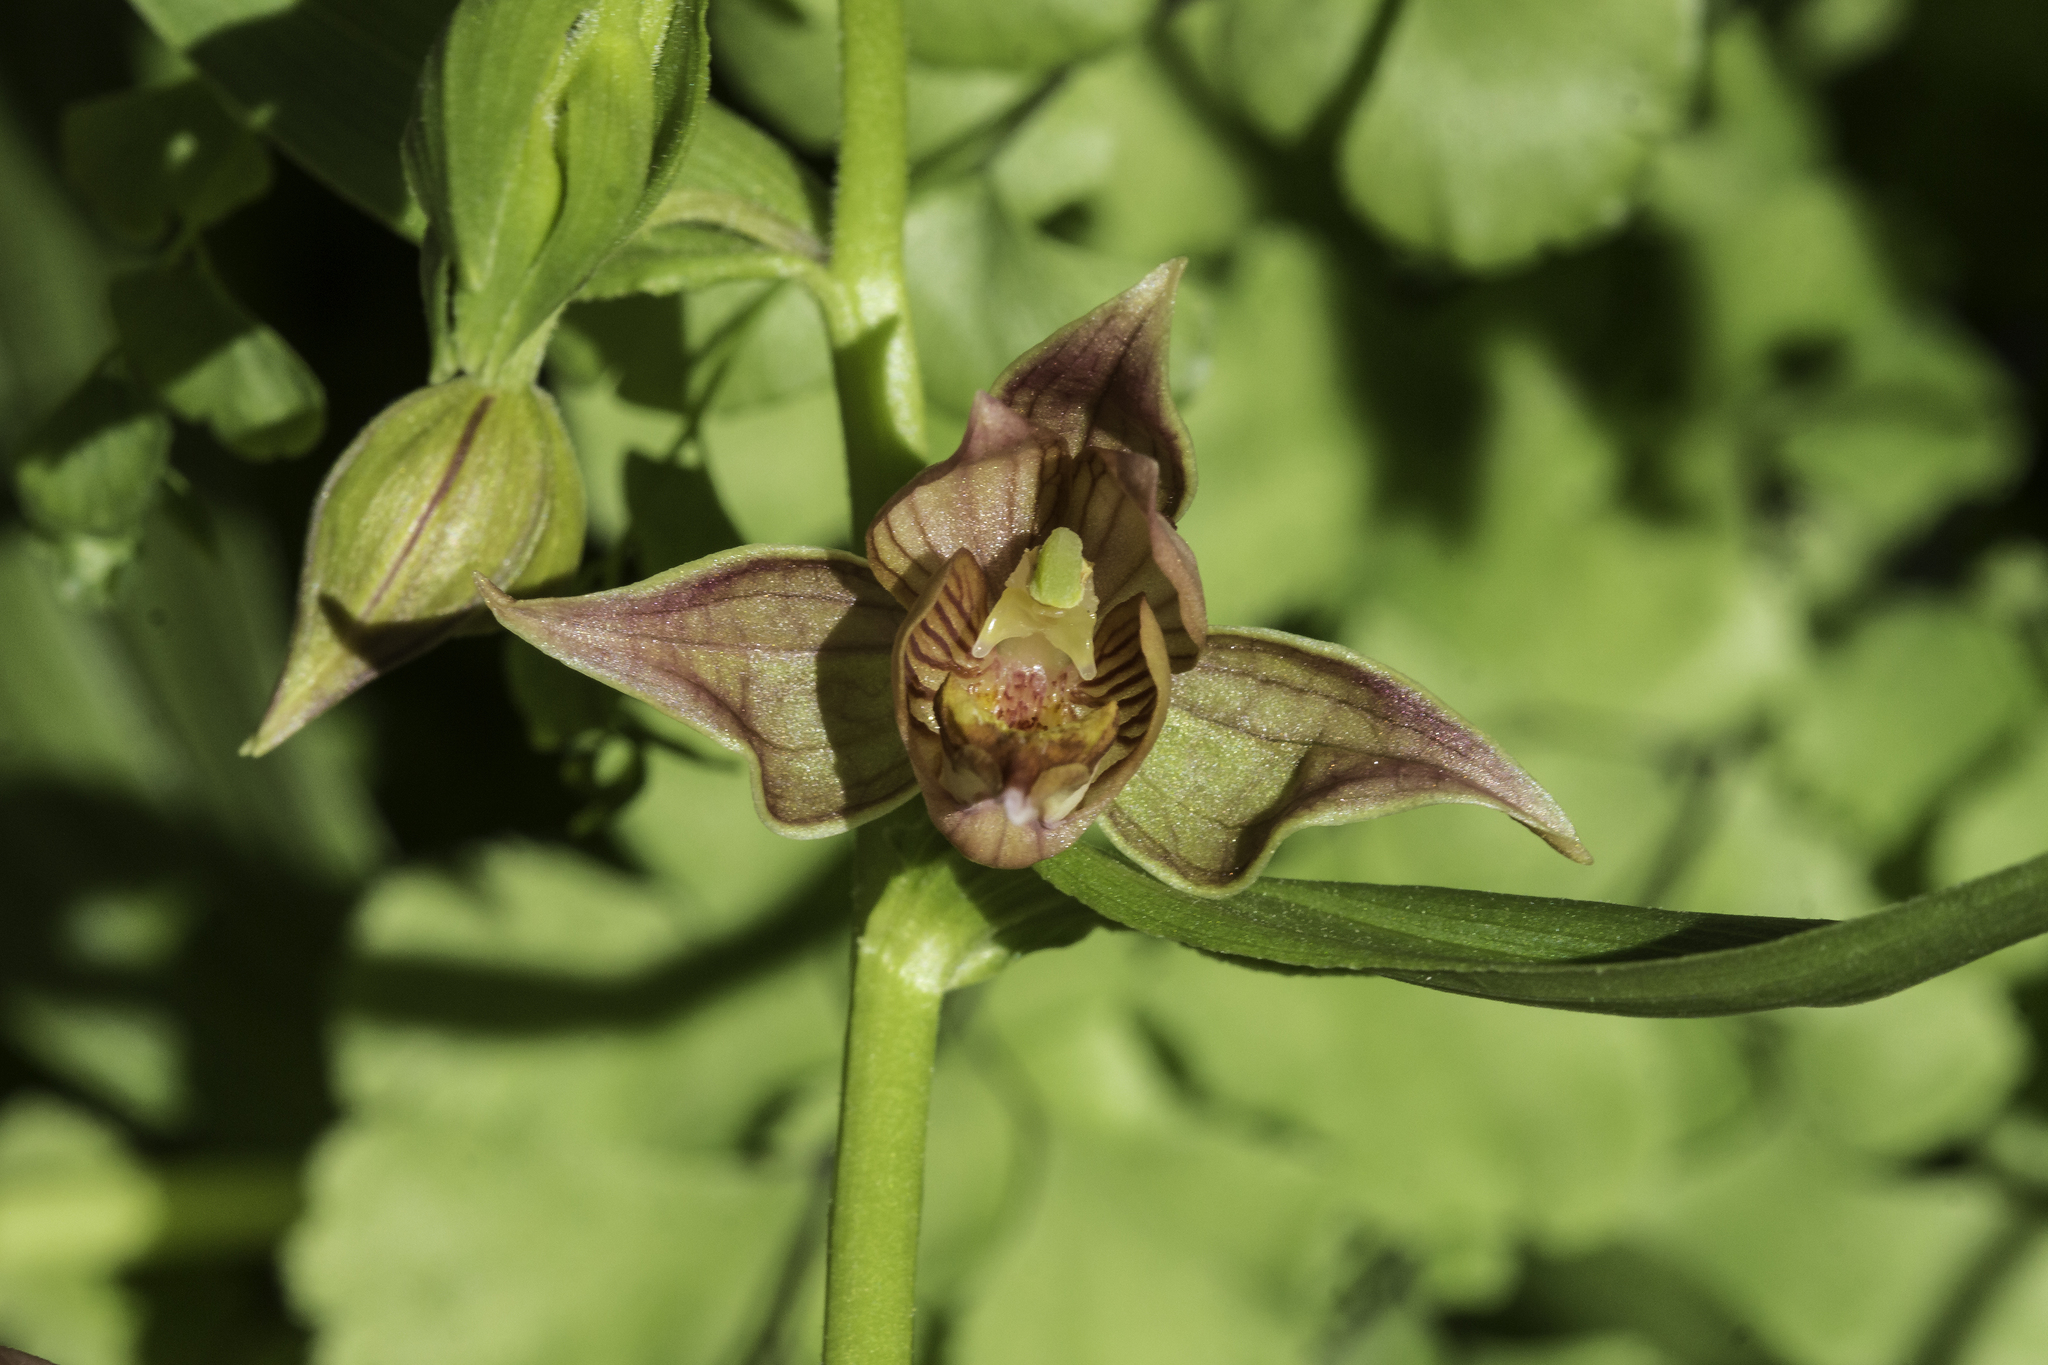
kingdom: Plantae
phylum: Tracheophyta
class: Liliopsida
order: Asparagales
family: Orchidaceae
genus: Epipactis
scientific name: Epipactis gigantea
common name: Chatterbox
